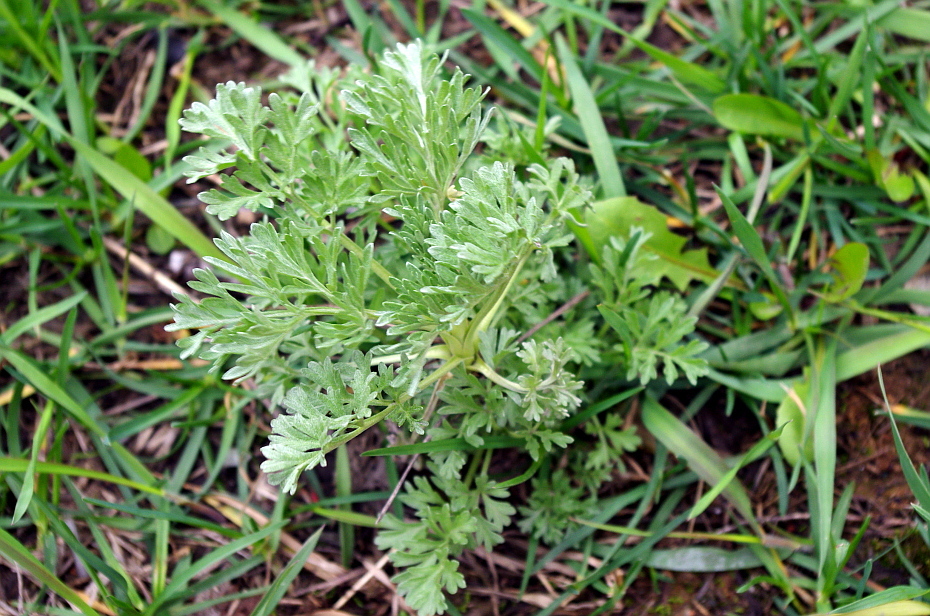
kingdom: Plantae
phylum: Tracheophyta
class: Magnoliopsida
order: Asterales
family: Asteraceae
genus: Artemisia
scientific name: Artemisia absinthium
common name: Wormwood
